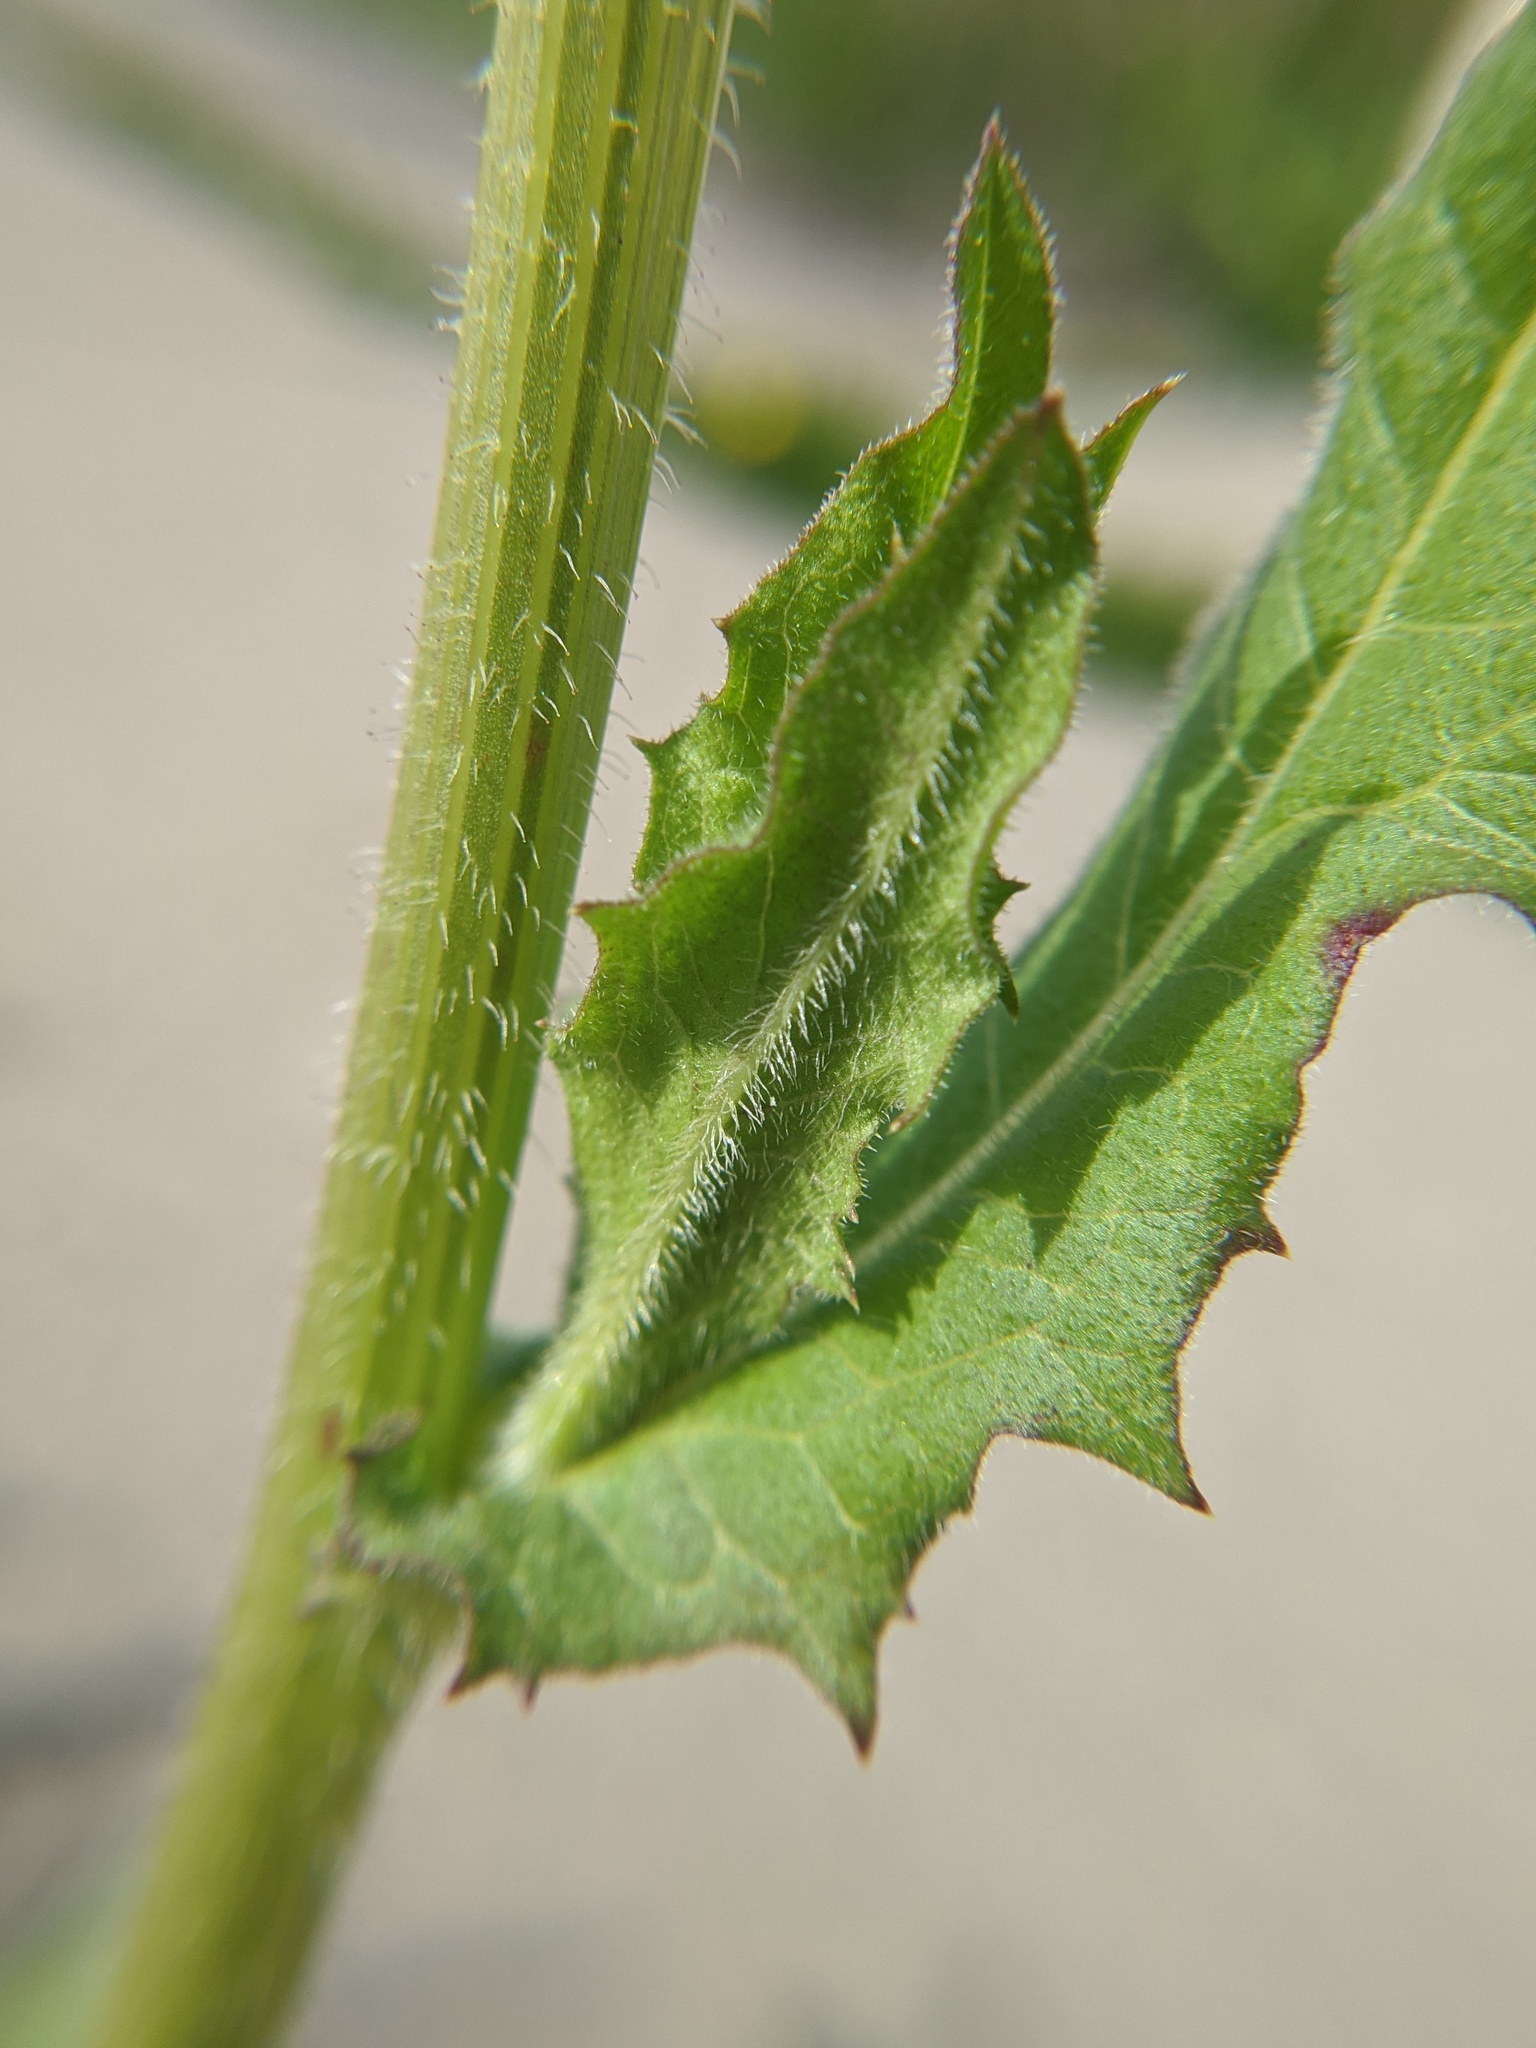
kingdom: Plantae
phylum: Tracheophyta
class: Magnoliopsida
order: Asterales
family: Asteraceae
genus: Cichorium
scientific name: Cichorium intybus
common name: Chicory
